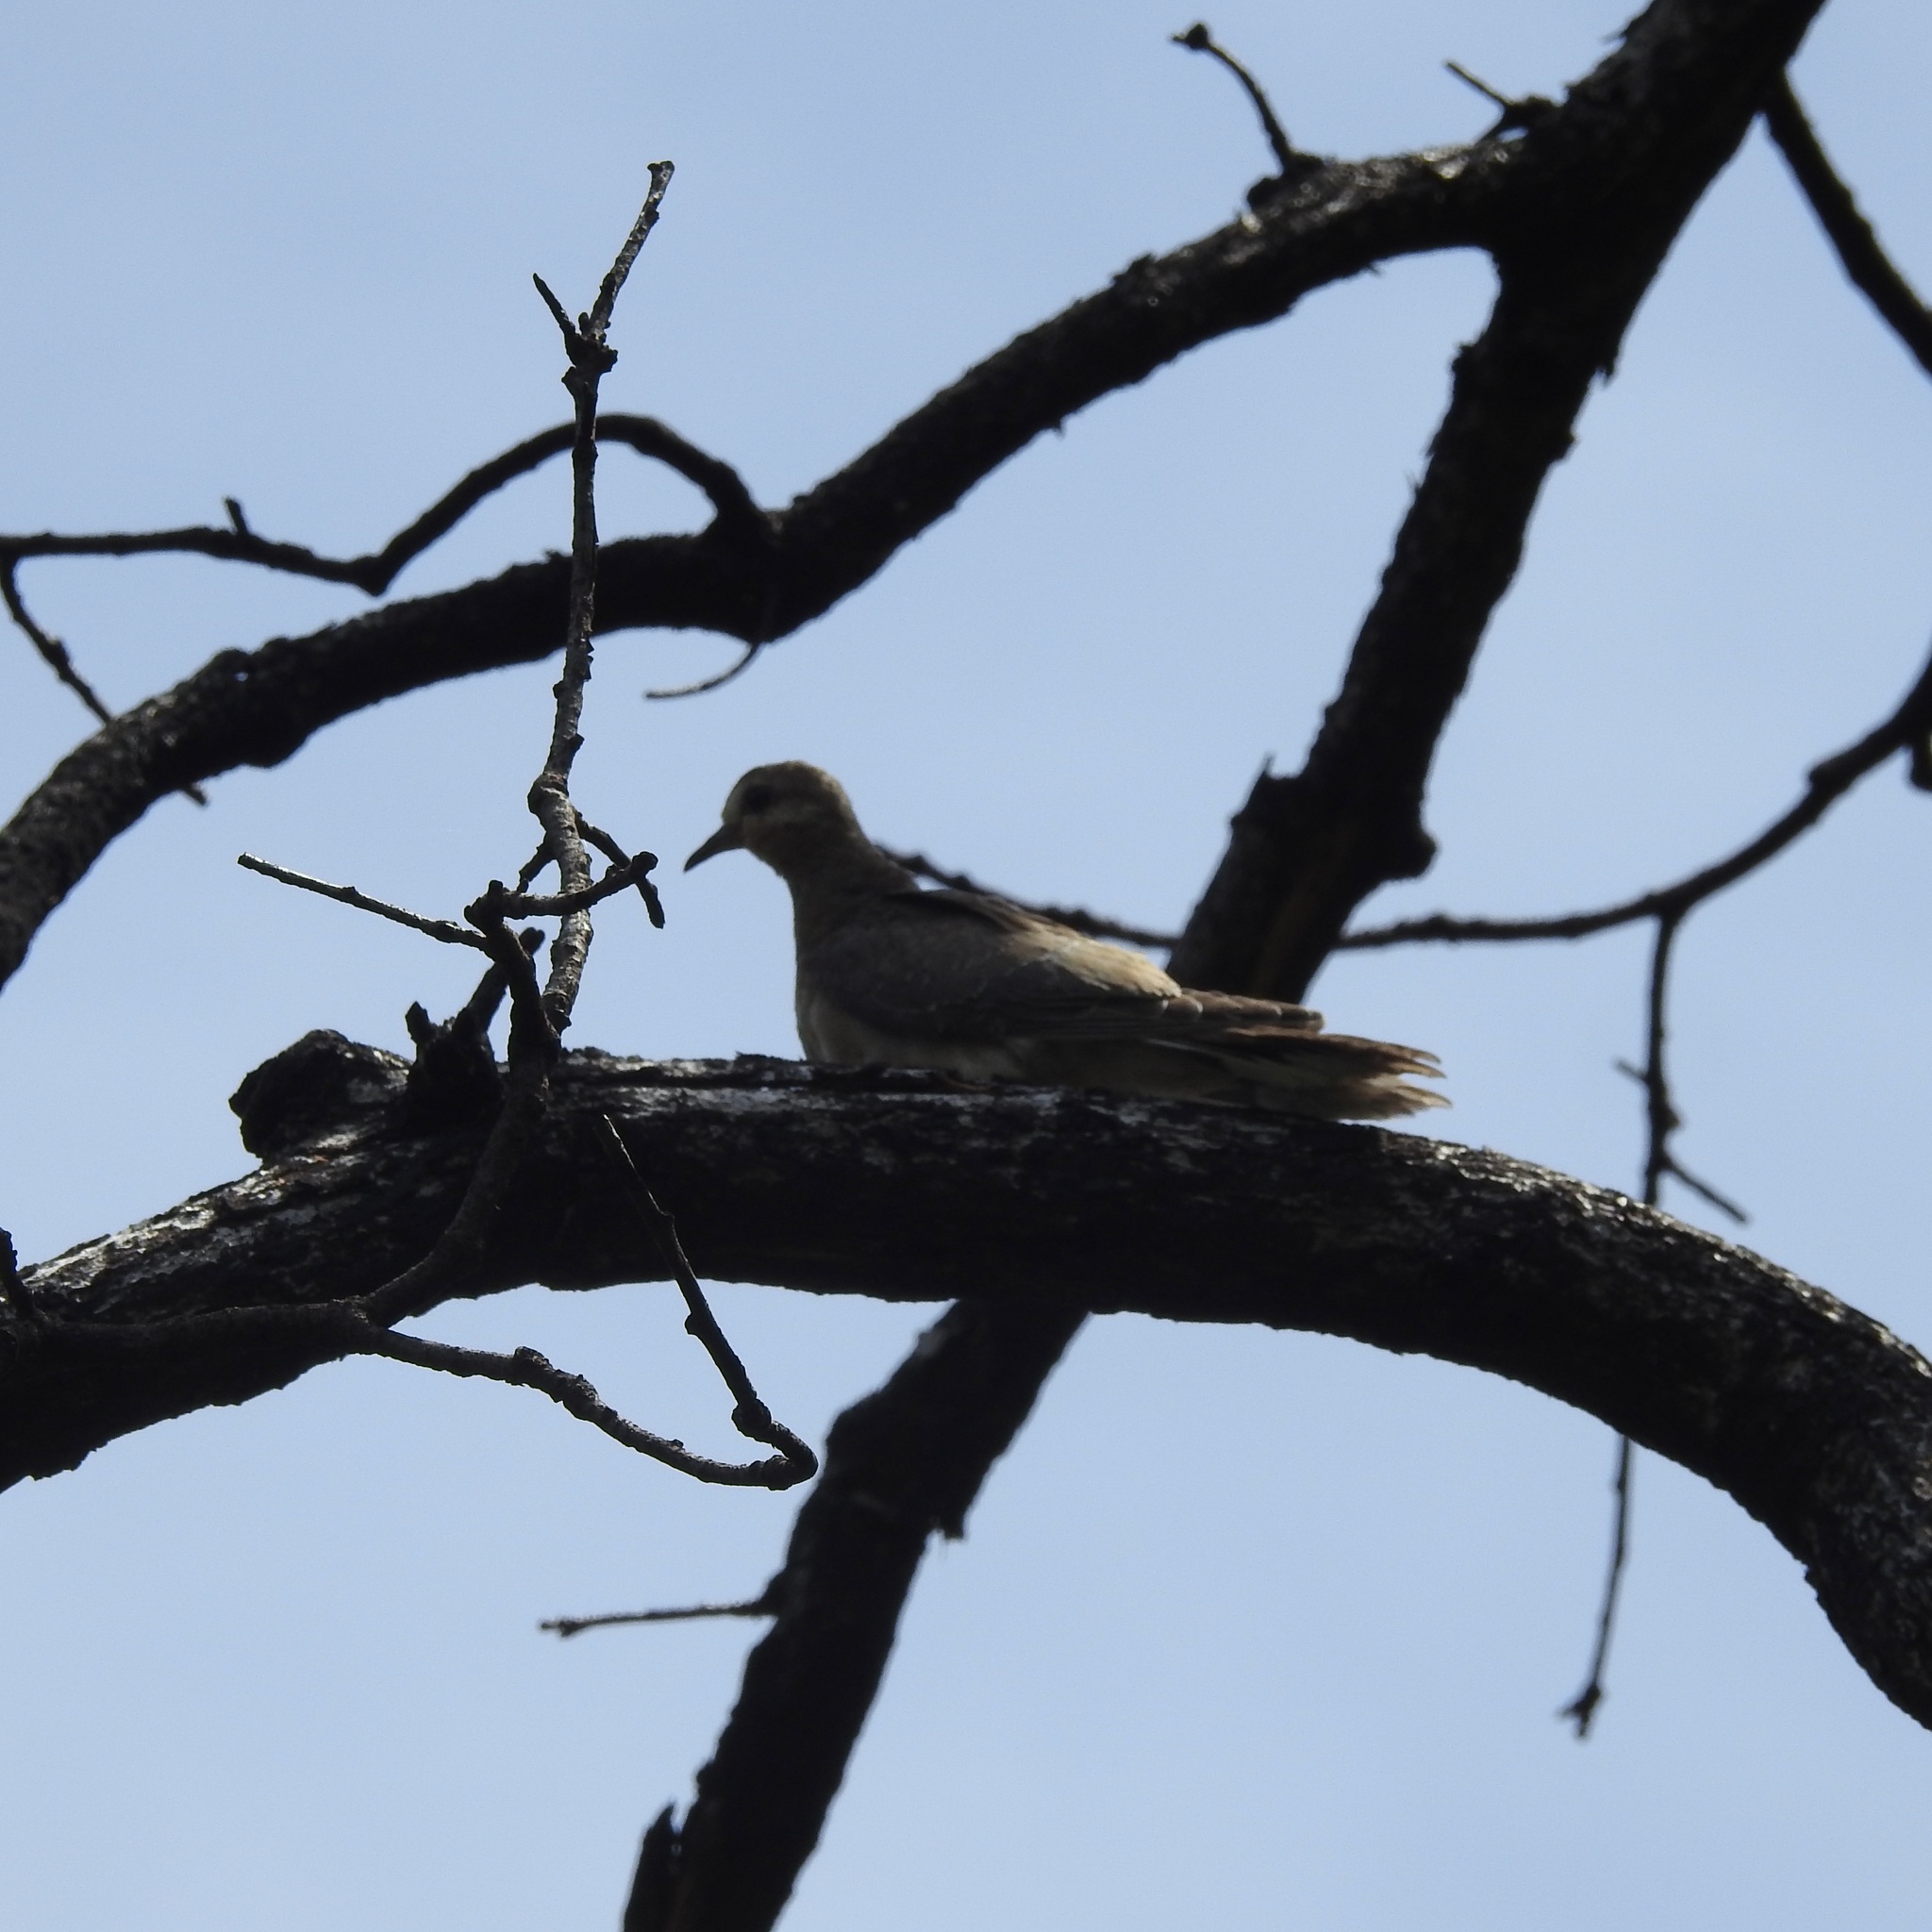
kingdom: Animalia
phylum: Chordata
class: Aves
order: Columbiformes
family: Columbidae
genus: Zenaida
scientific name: Zenaida macroura
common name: Mourning dove
